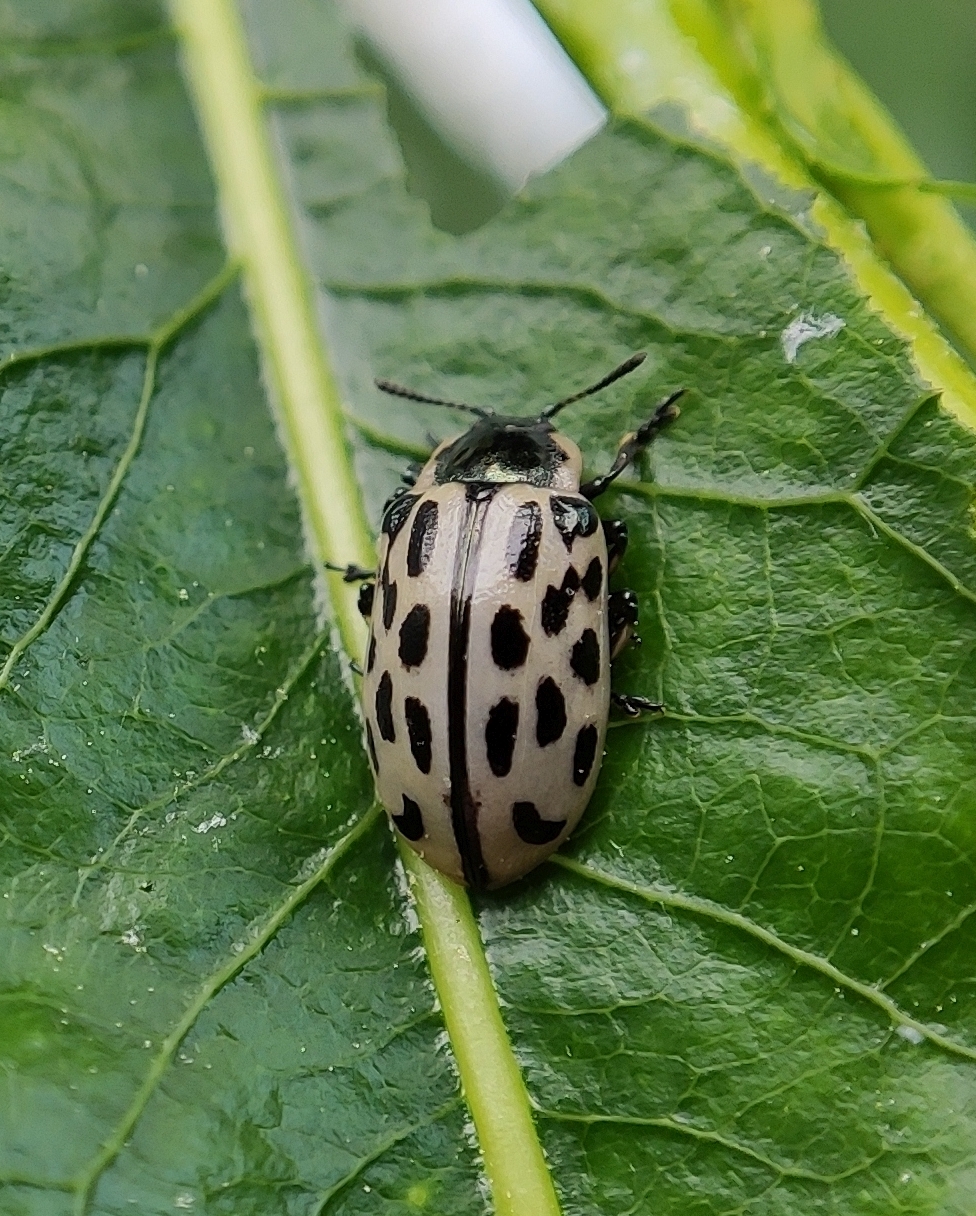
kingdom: Animalia
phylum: Arthropoda
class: Insecta
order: Coleoptera
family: Chrysomelidae
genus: Chrysomela
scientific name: Chrysomela vigintipunctata
